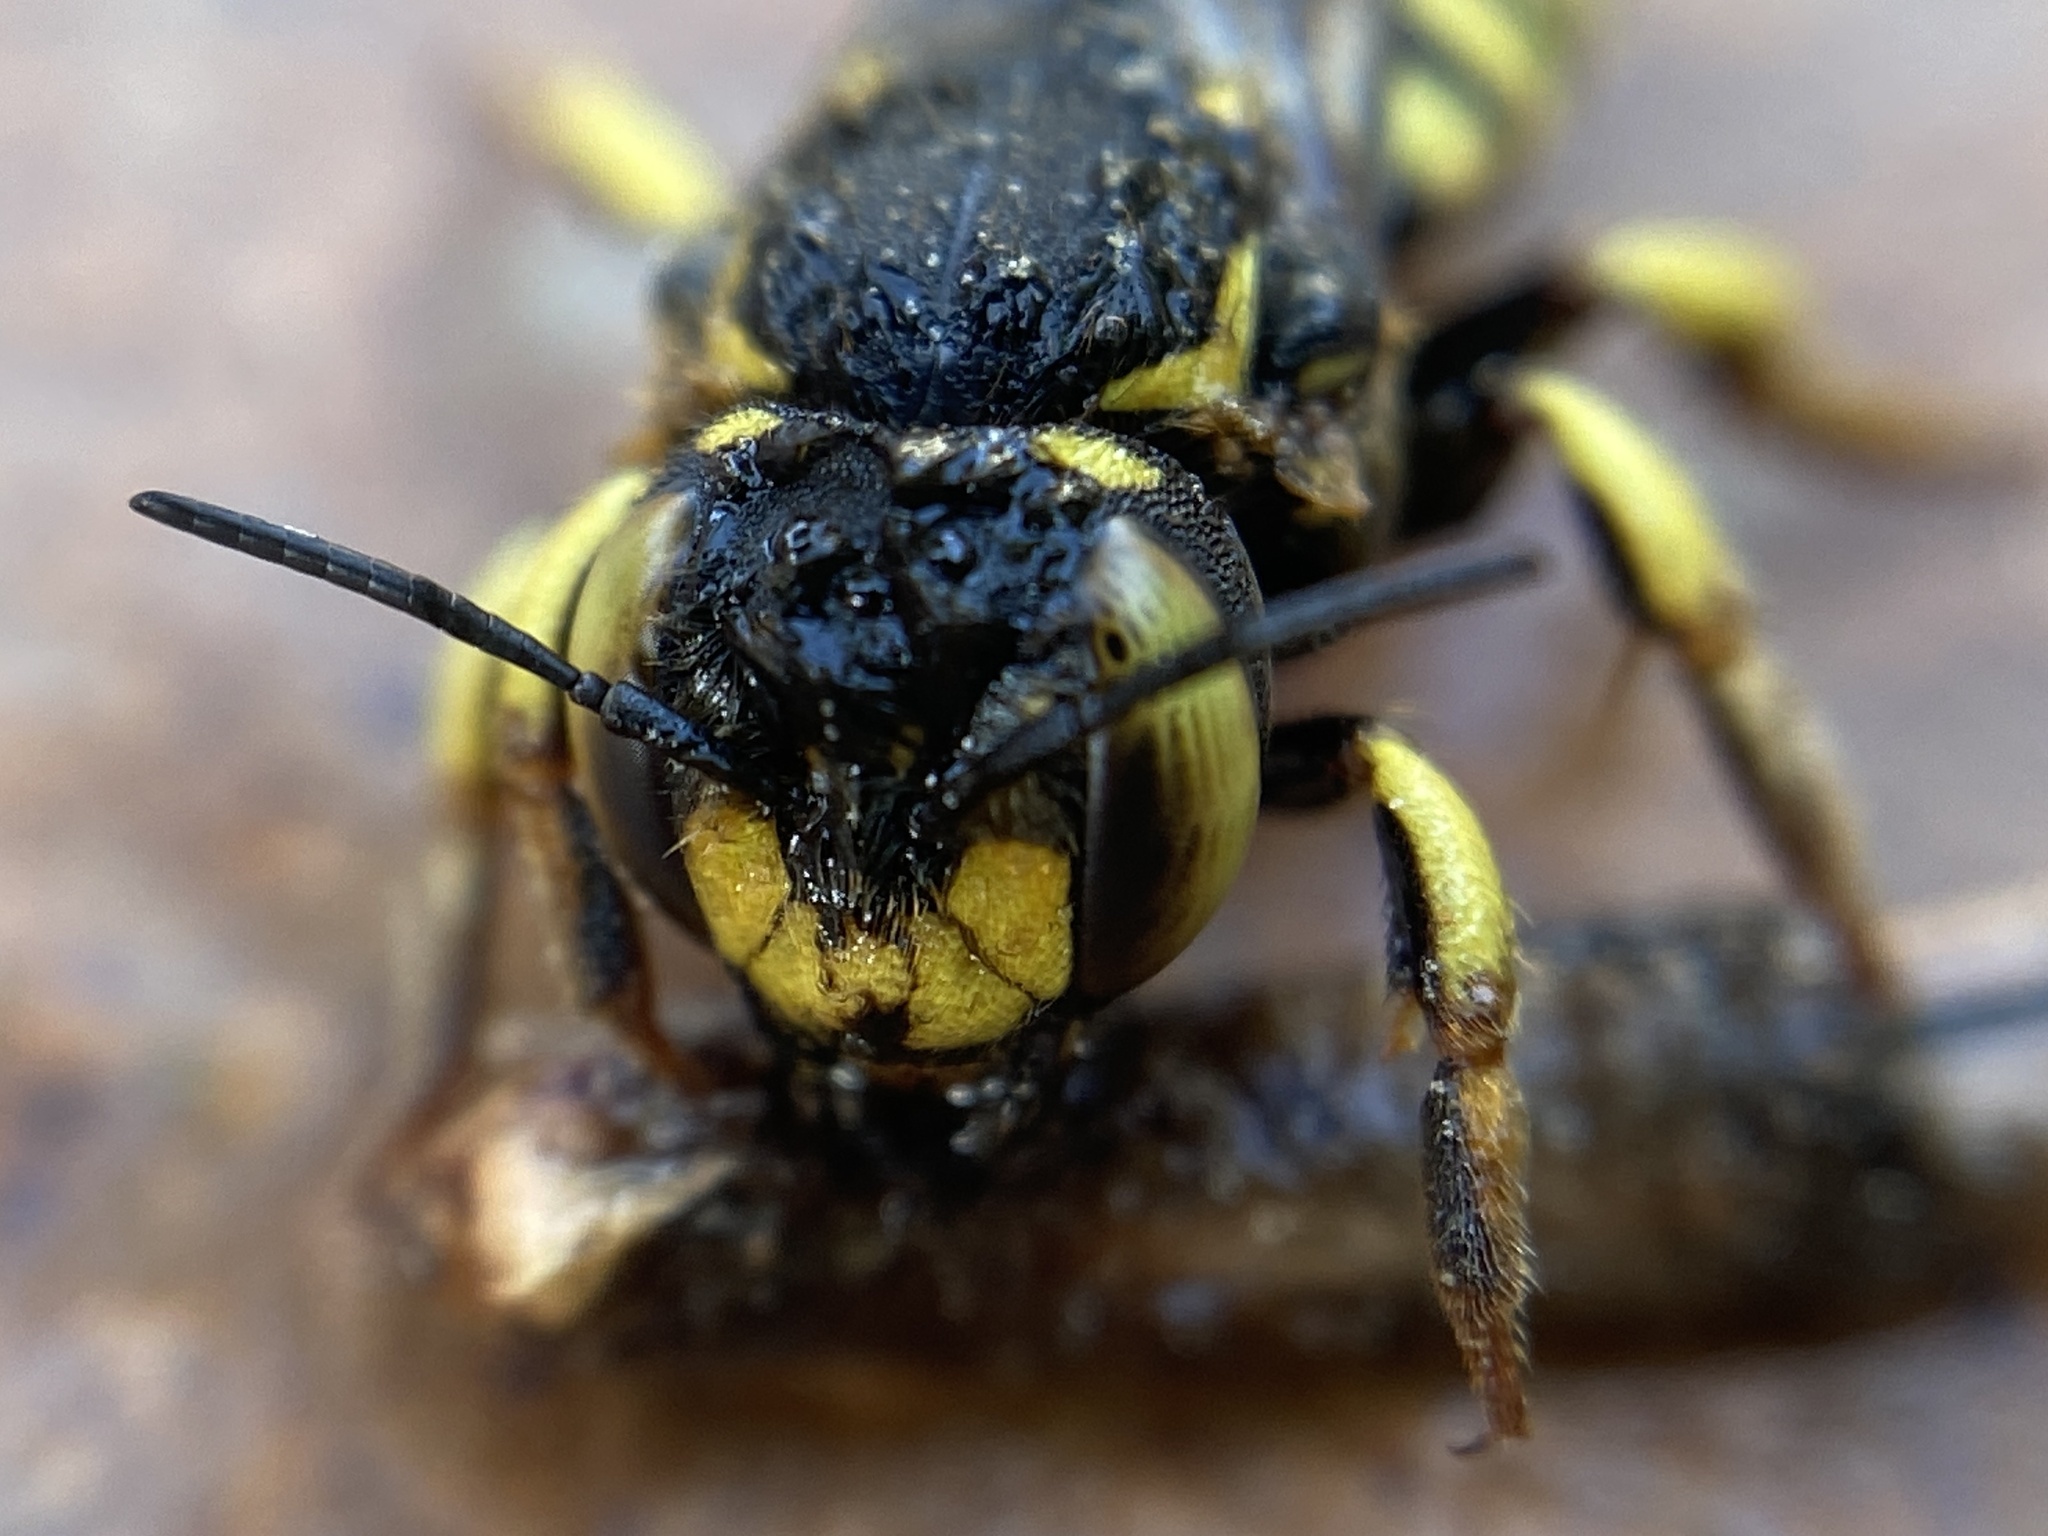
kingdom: Animalia
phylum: Arthropoda
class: Insecta
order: Hymenoptera
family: Megachilidae
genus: Anthidium
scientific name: Anthidium florentinum
